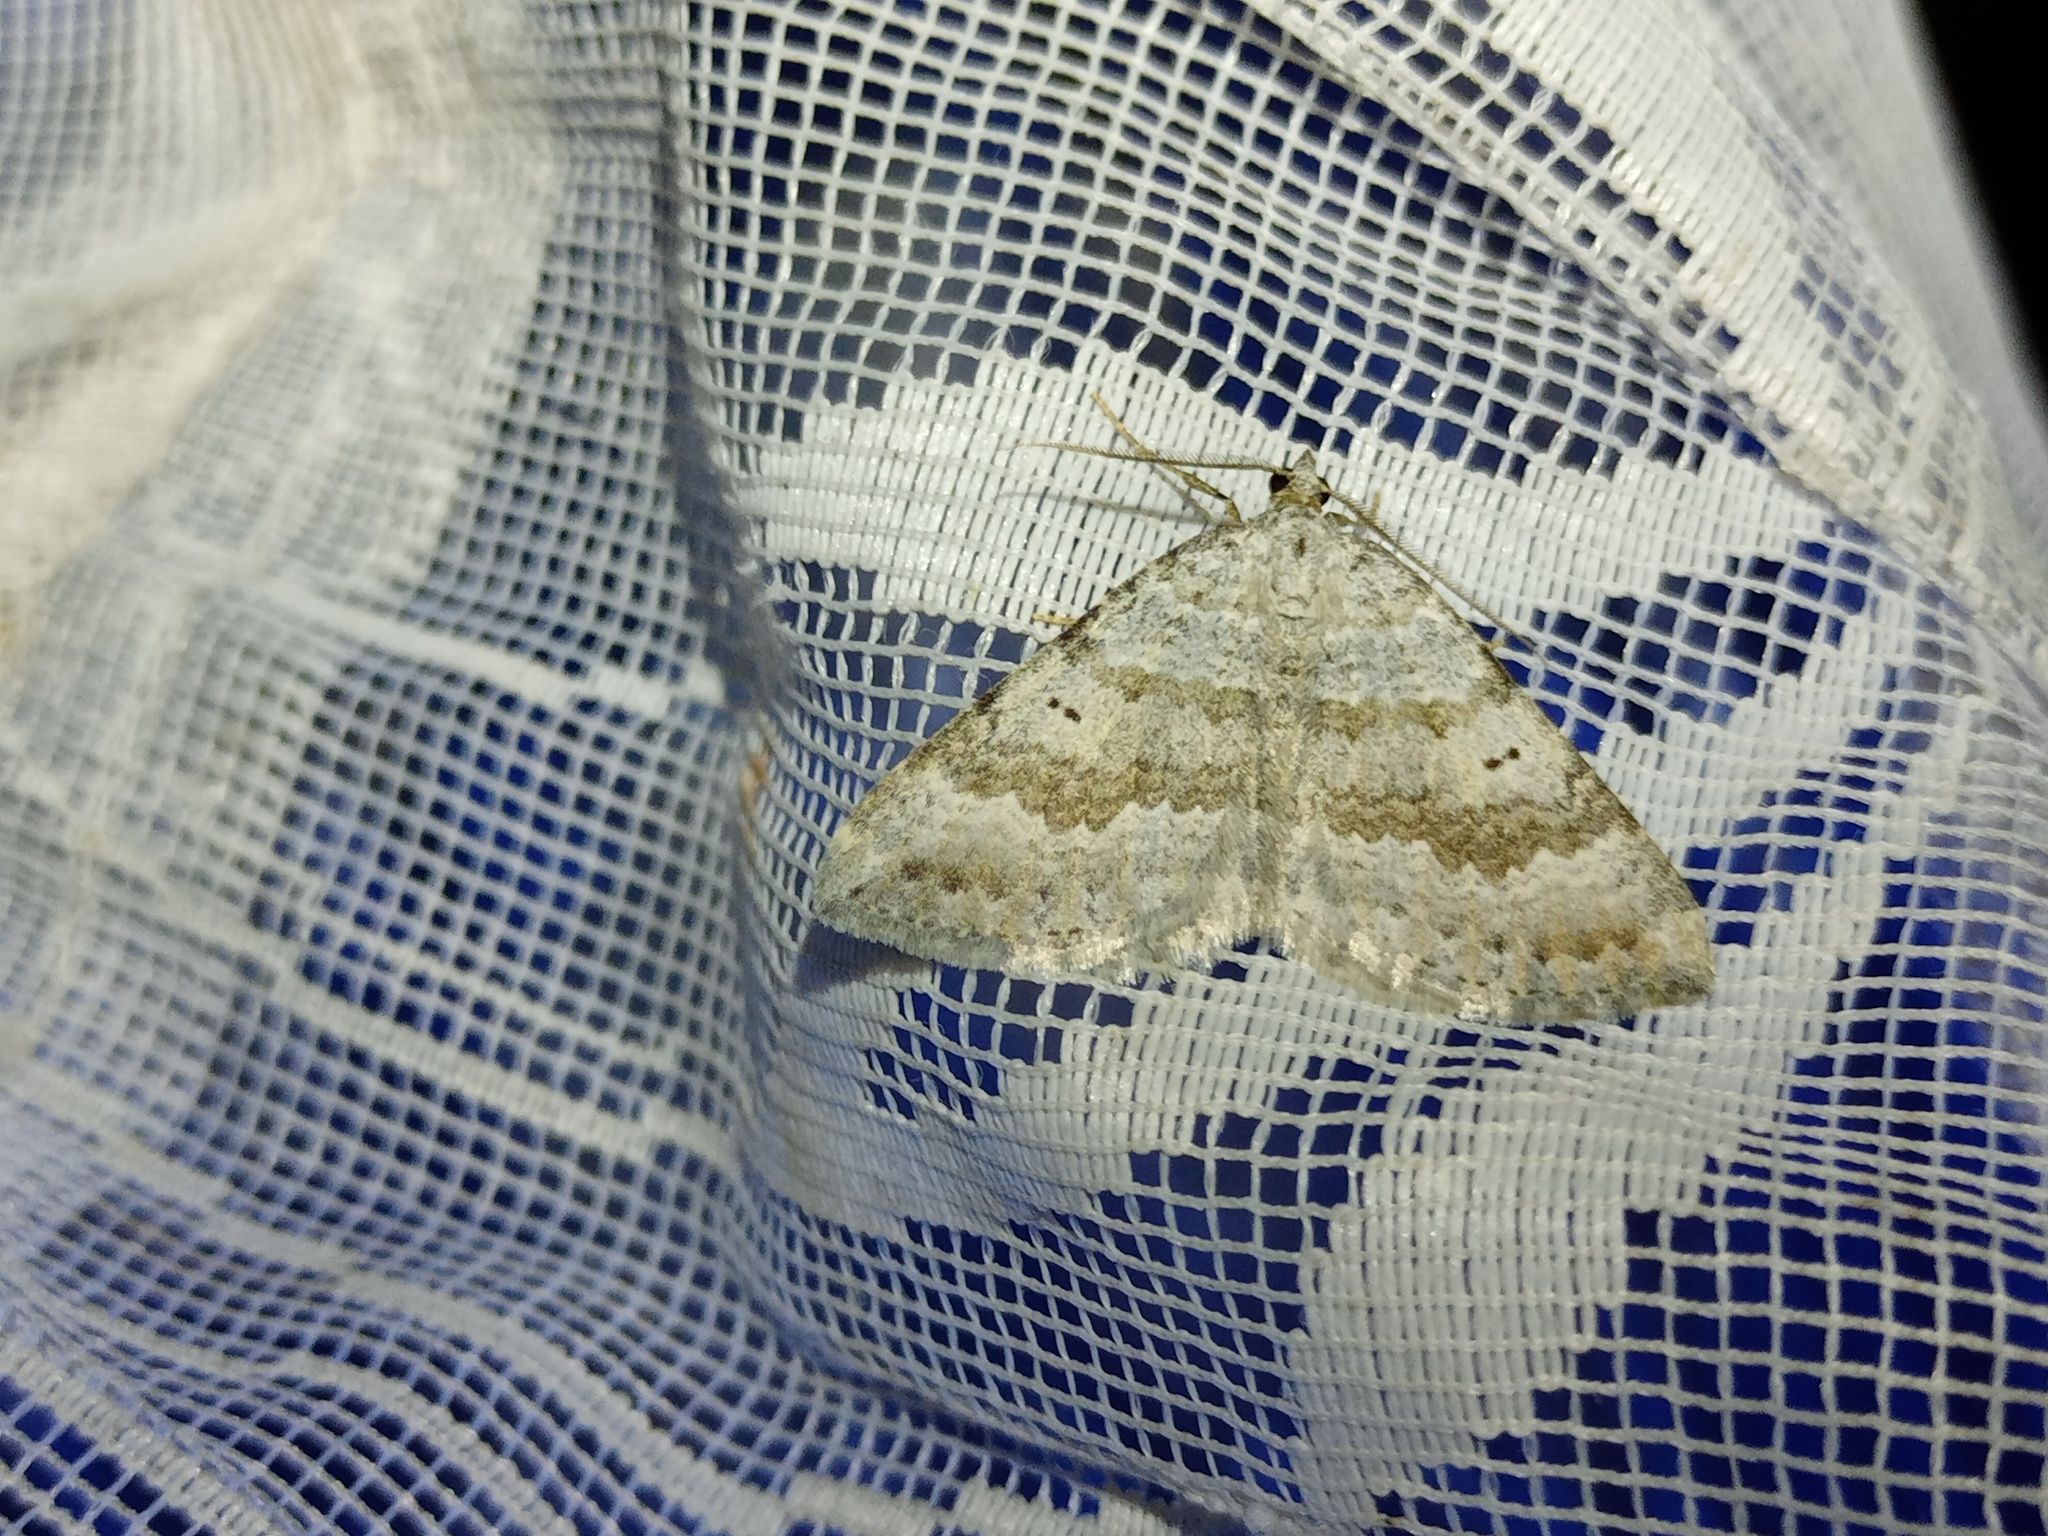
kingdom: Animalia
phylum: Arthropoda
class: Insecta
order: Lepidoptera
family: Geometridae
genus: Scotopteryx
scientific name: Scotopteryx bipunctaria
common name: Chalk carpet
